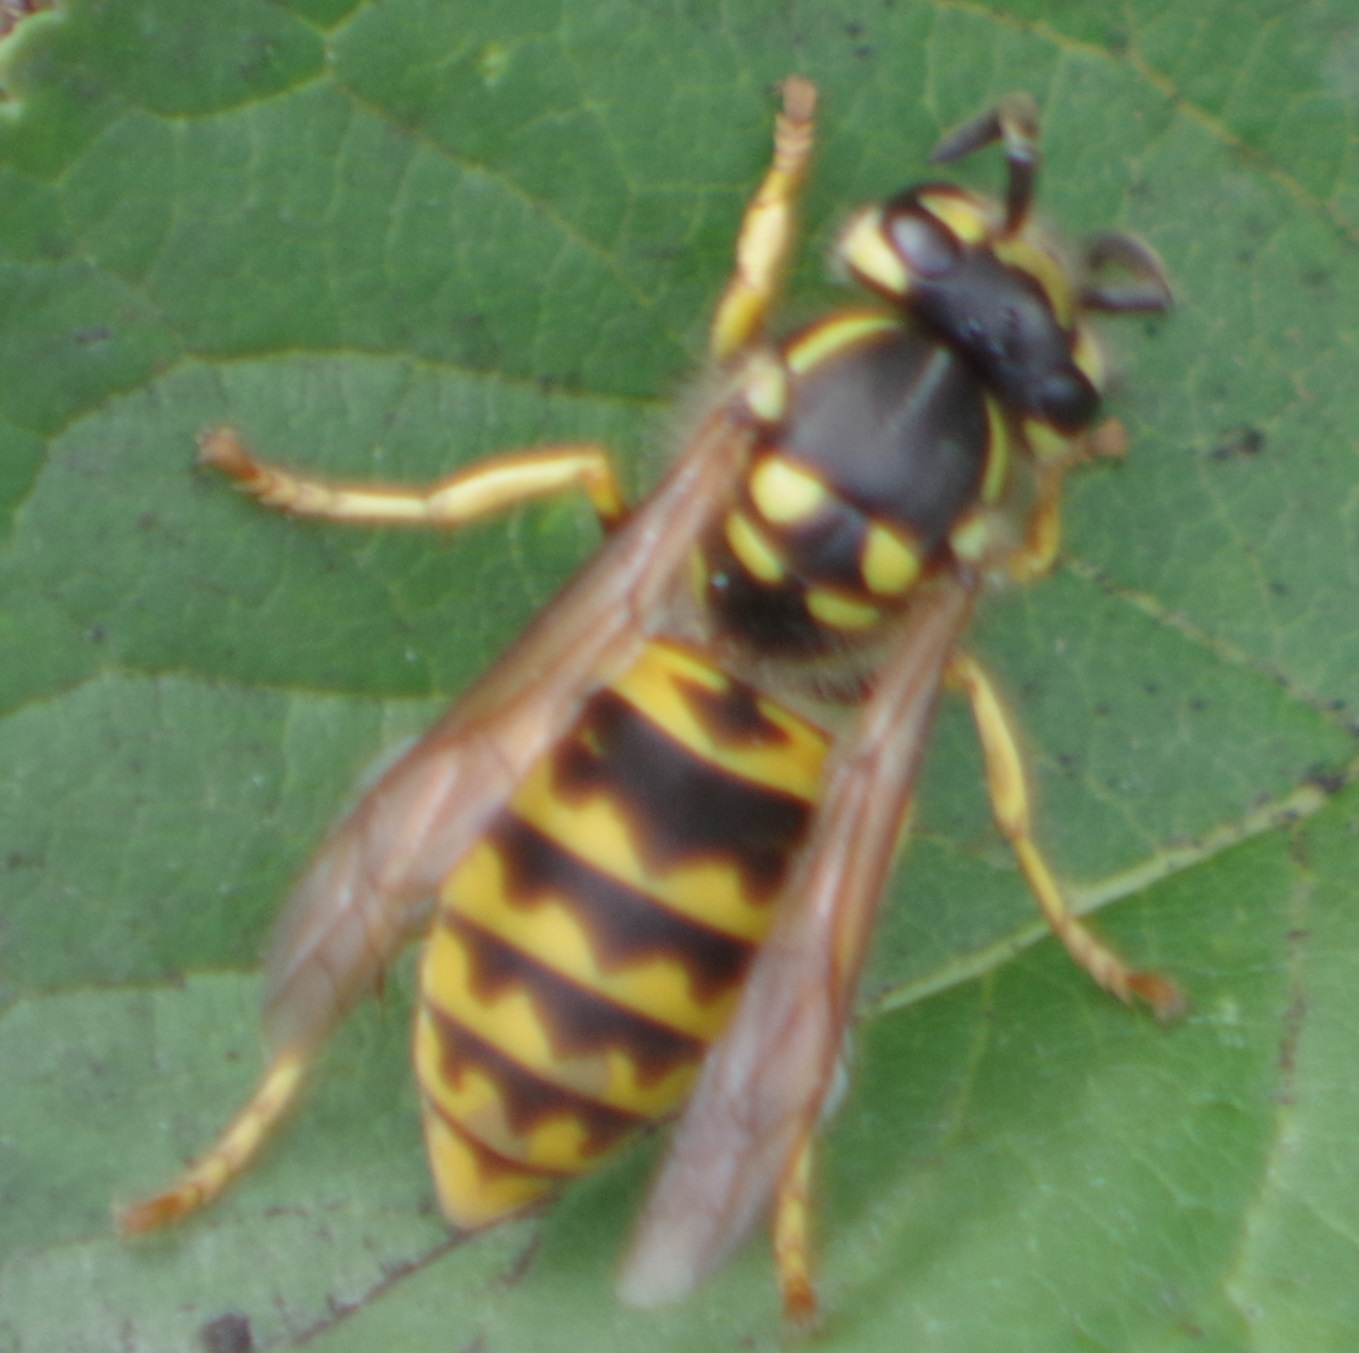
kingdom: Animalia
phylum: Arthropoda
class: Insecta
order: Hymenoptera
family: Vespidae
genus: Vespula
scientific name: Vespula germanica
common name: German wasp
